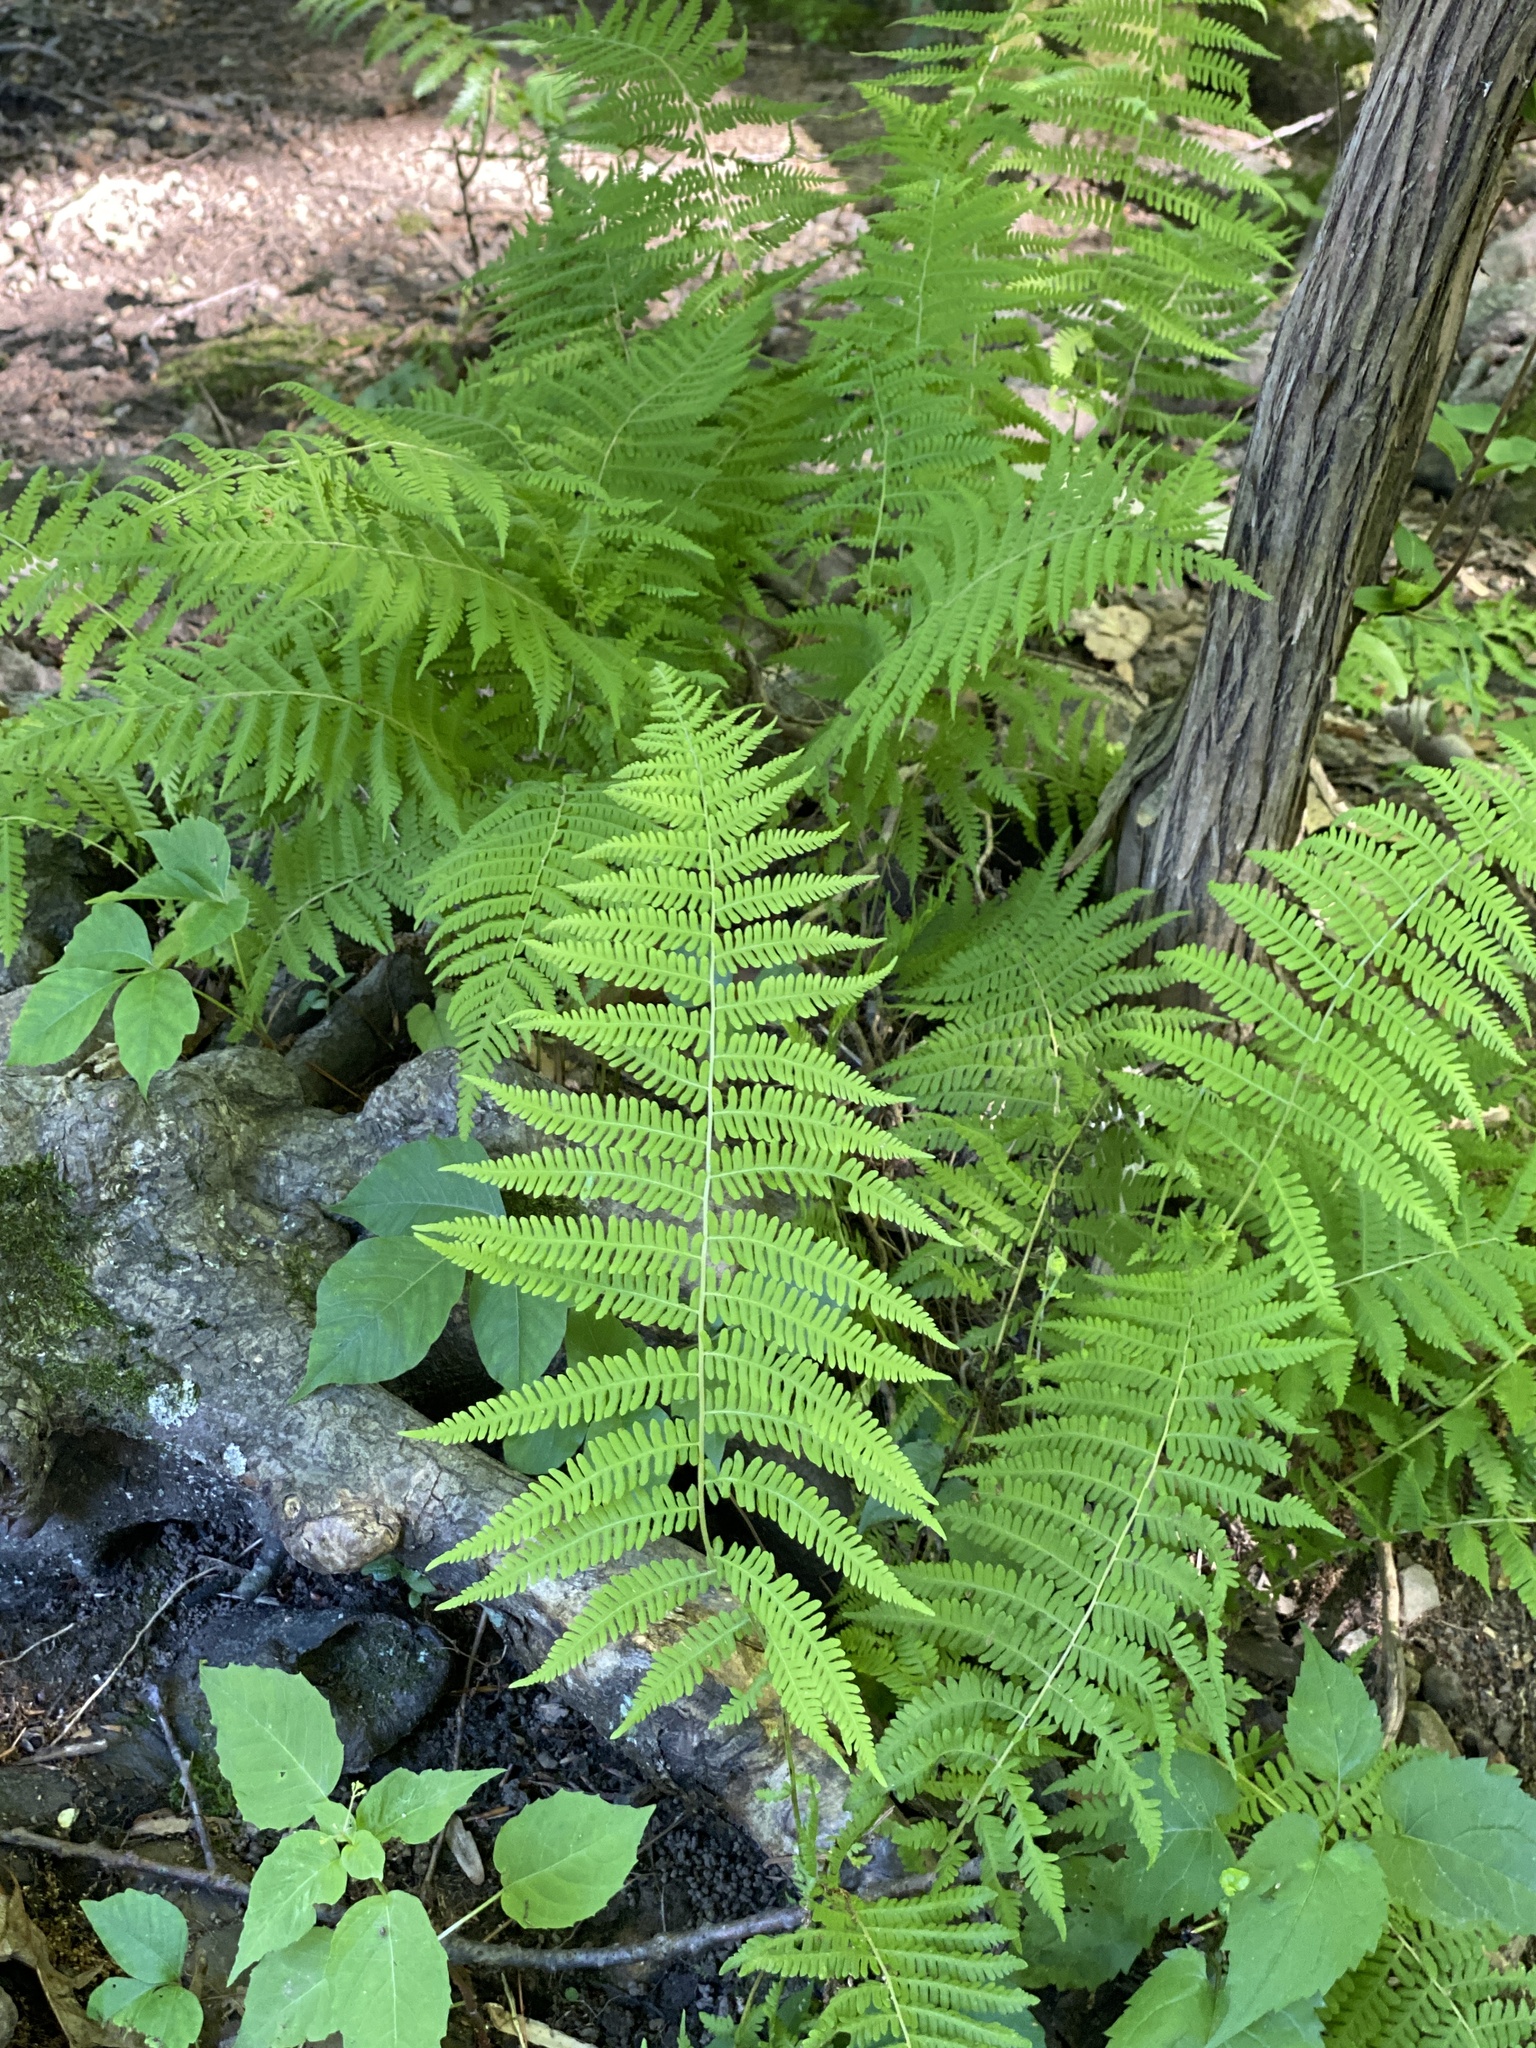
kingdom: Plantae
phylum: Tracheophyta
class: Polypodiopsida
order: Polypodiales
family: Thelypteridaceae
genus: Amauropelta
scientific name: Amauropelta noveboracensis
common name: New york fern
